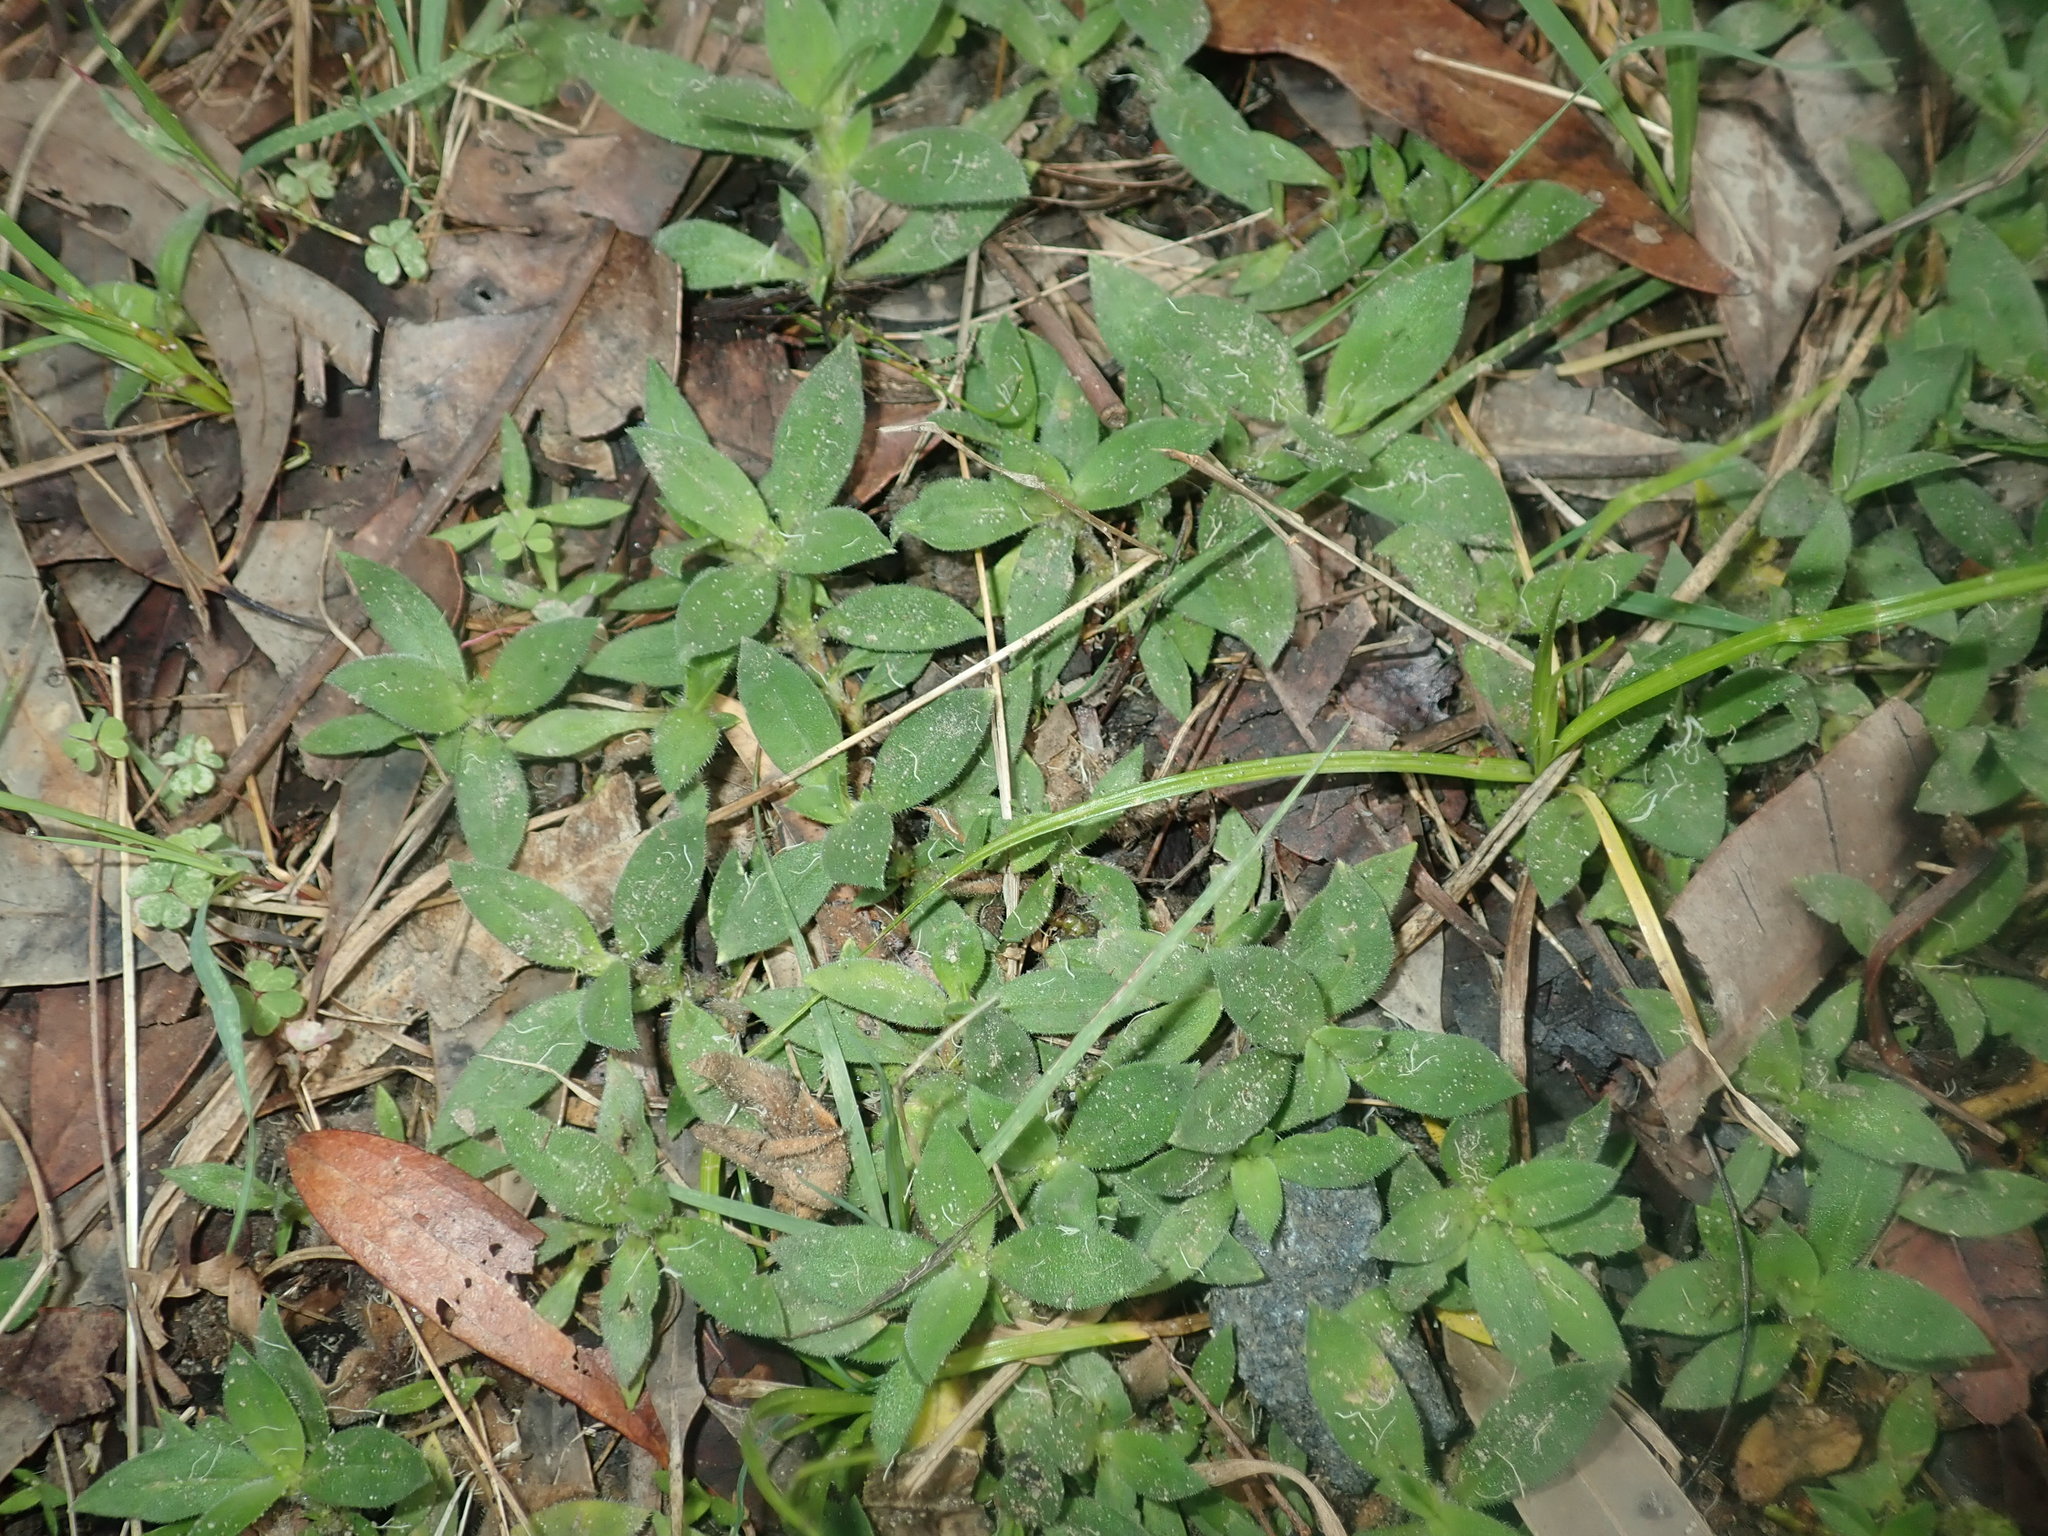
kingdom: Plantae
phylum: Tracheophyta
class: Magnoliopsida
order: Gentianales
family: Rubiaceae
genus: Richardia
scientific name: Richardia brasiliensis
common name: Tropical mexican clover
